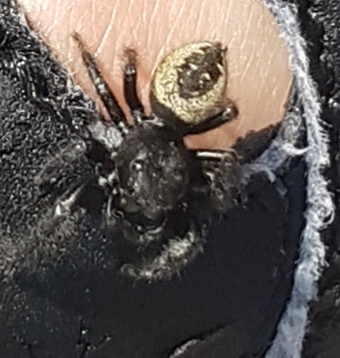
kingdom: Animalia
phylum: Arthropoda
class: Arachnida
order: Araneae
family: Salticidae
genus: Phidippus
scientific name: Phidippus purpuratus
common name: Marbled purple jumping spider
